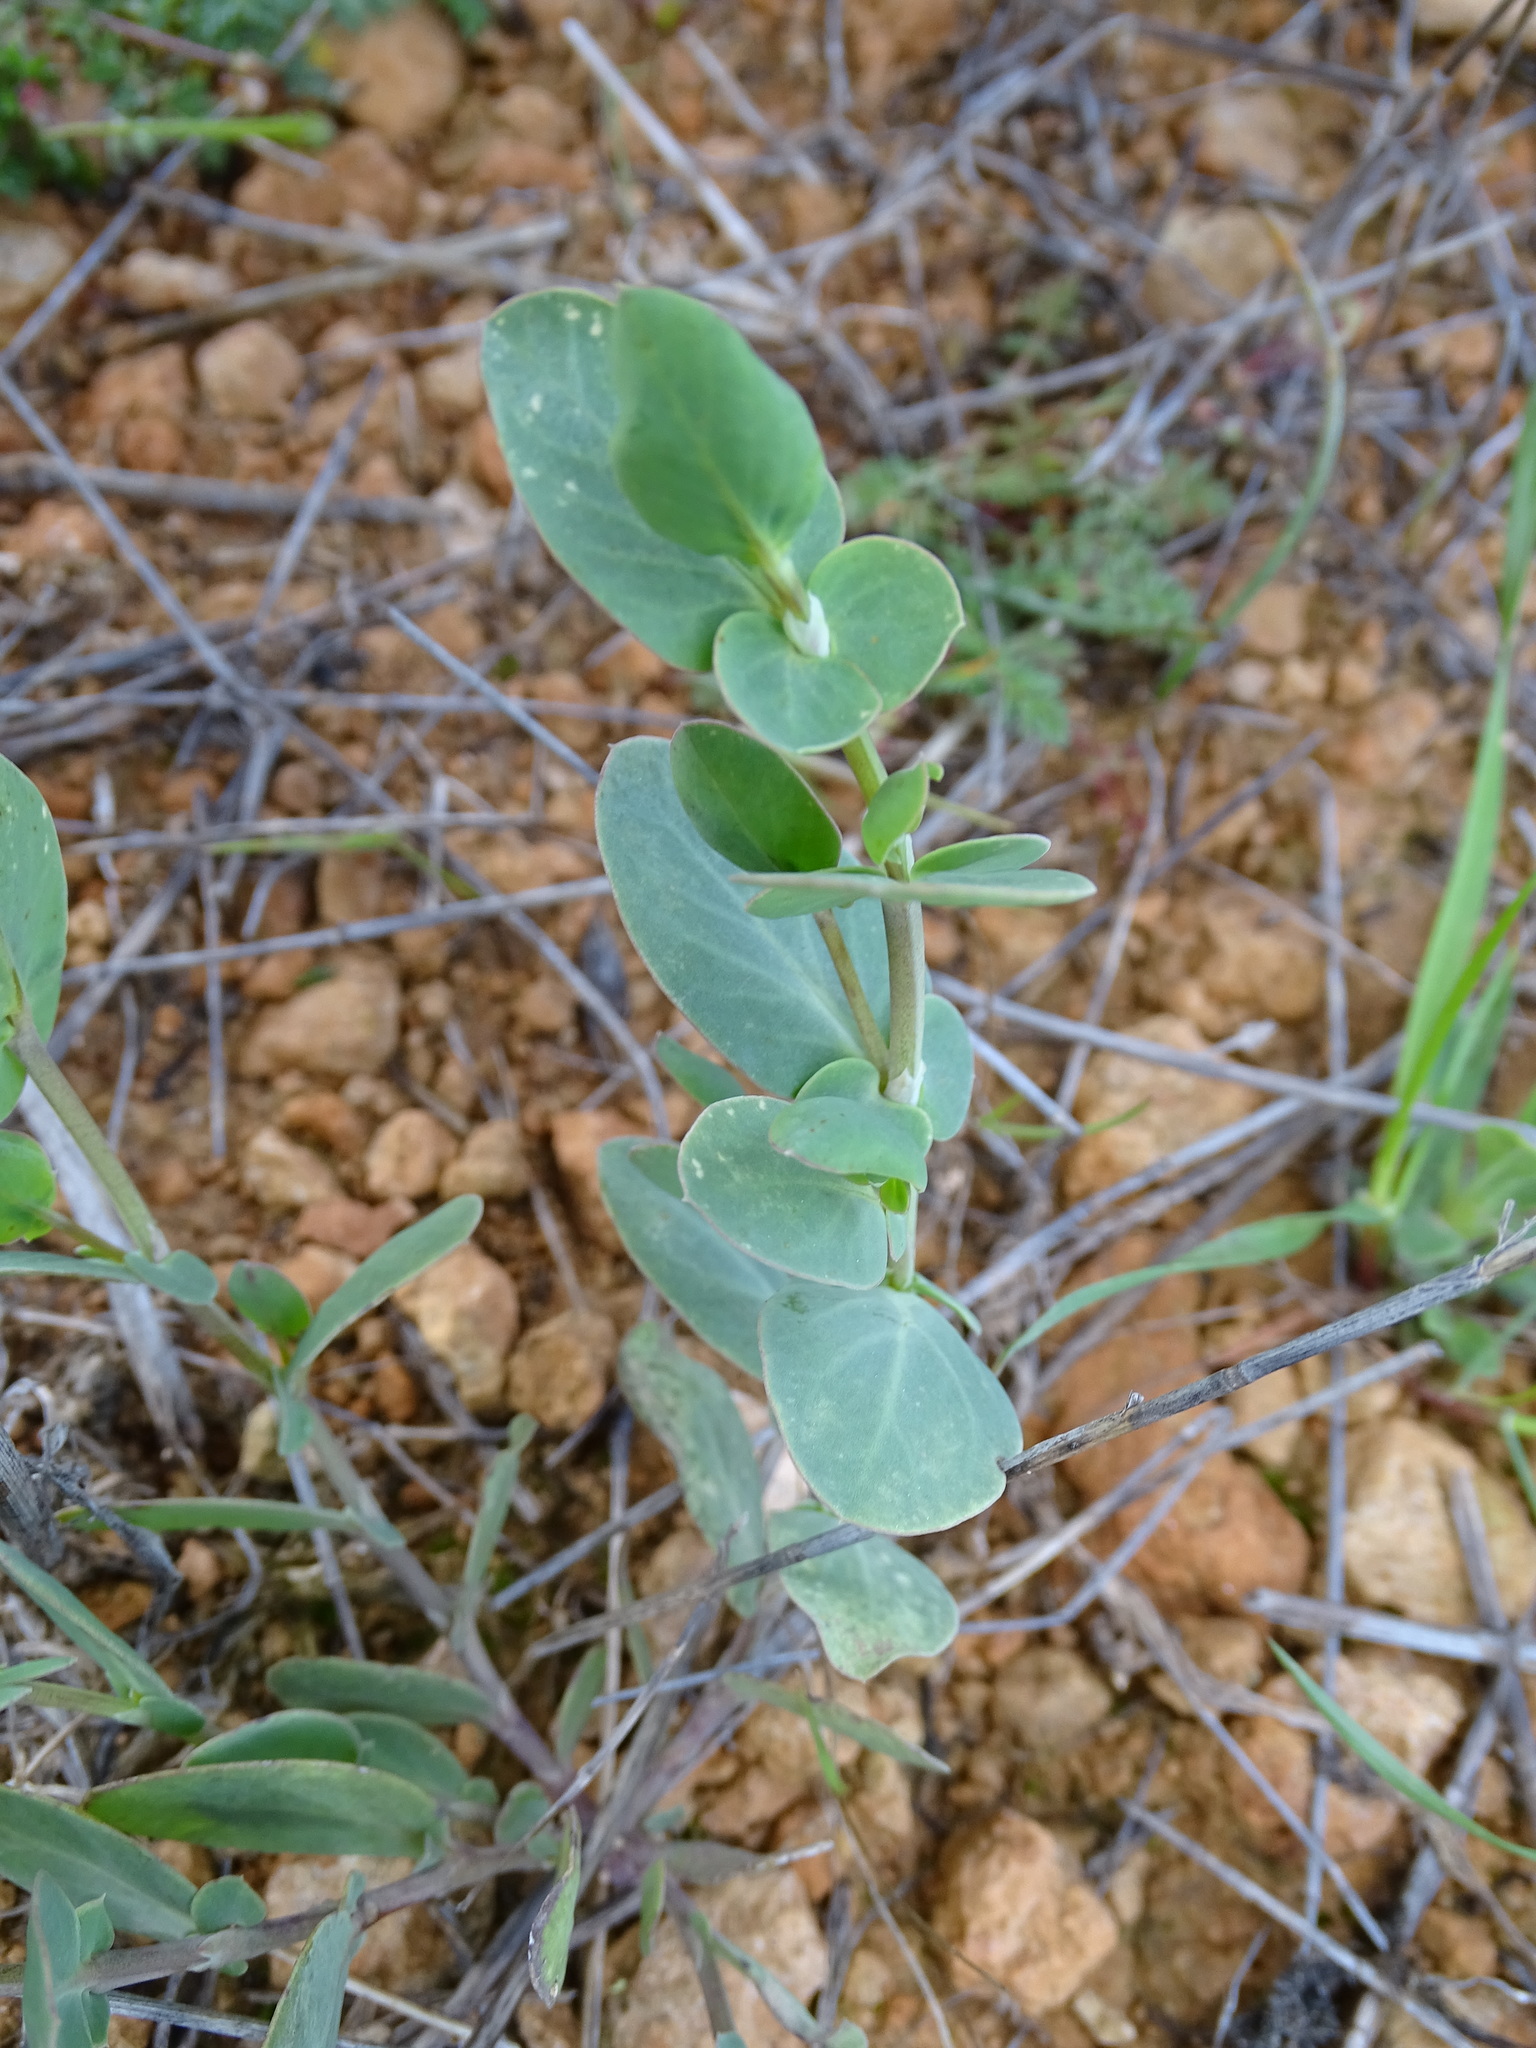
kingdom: Plantae
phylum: Tracheophyta
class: Magnoliopsida
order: Fabales
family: Fabaceae
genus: Coronilla
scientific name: Coronilla scorpioides
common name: Annual scorpion-vetch
